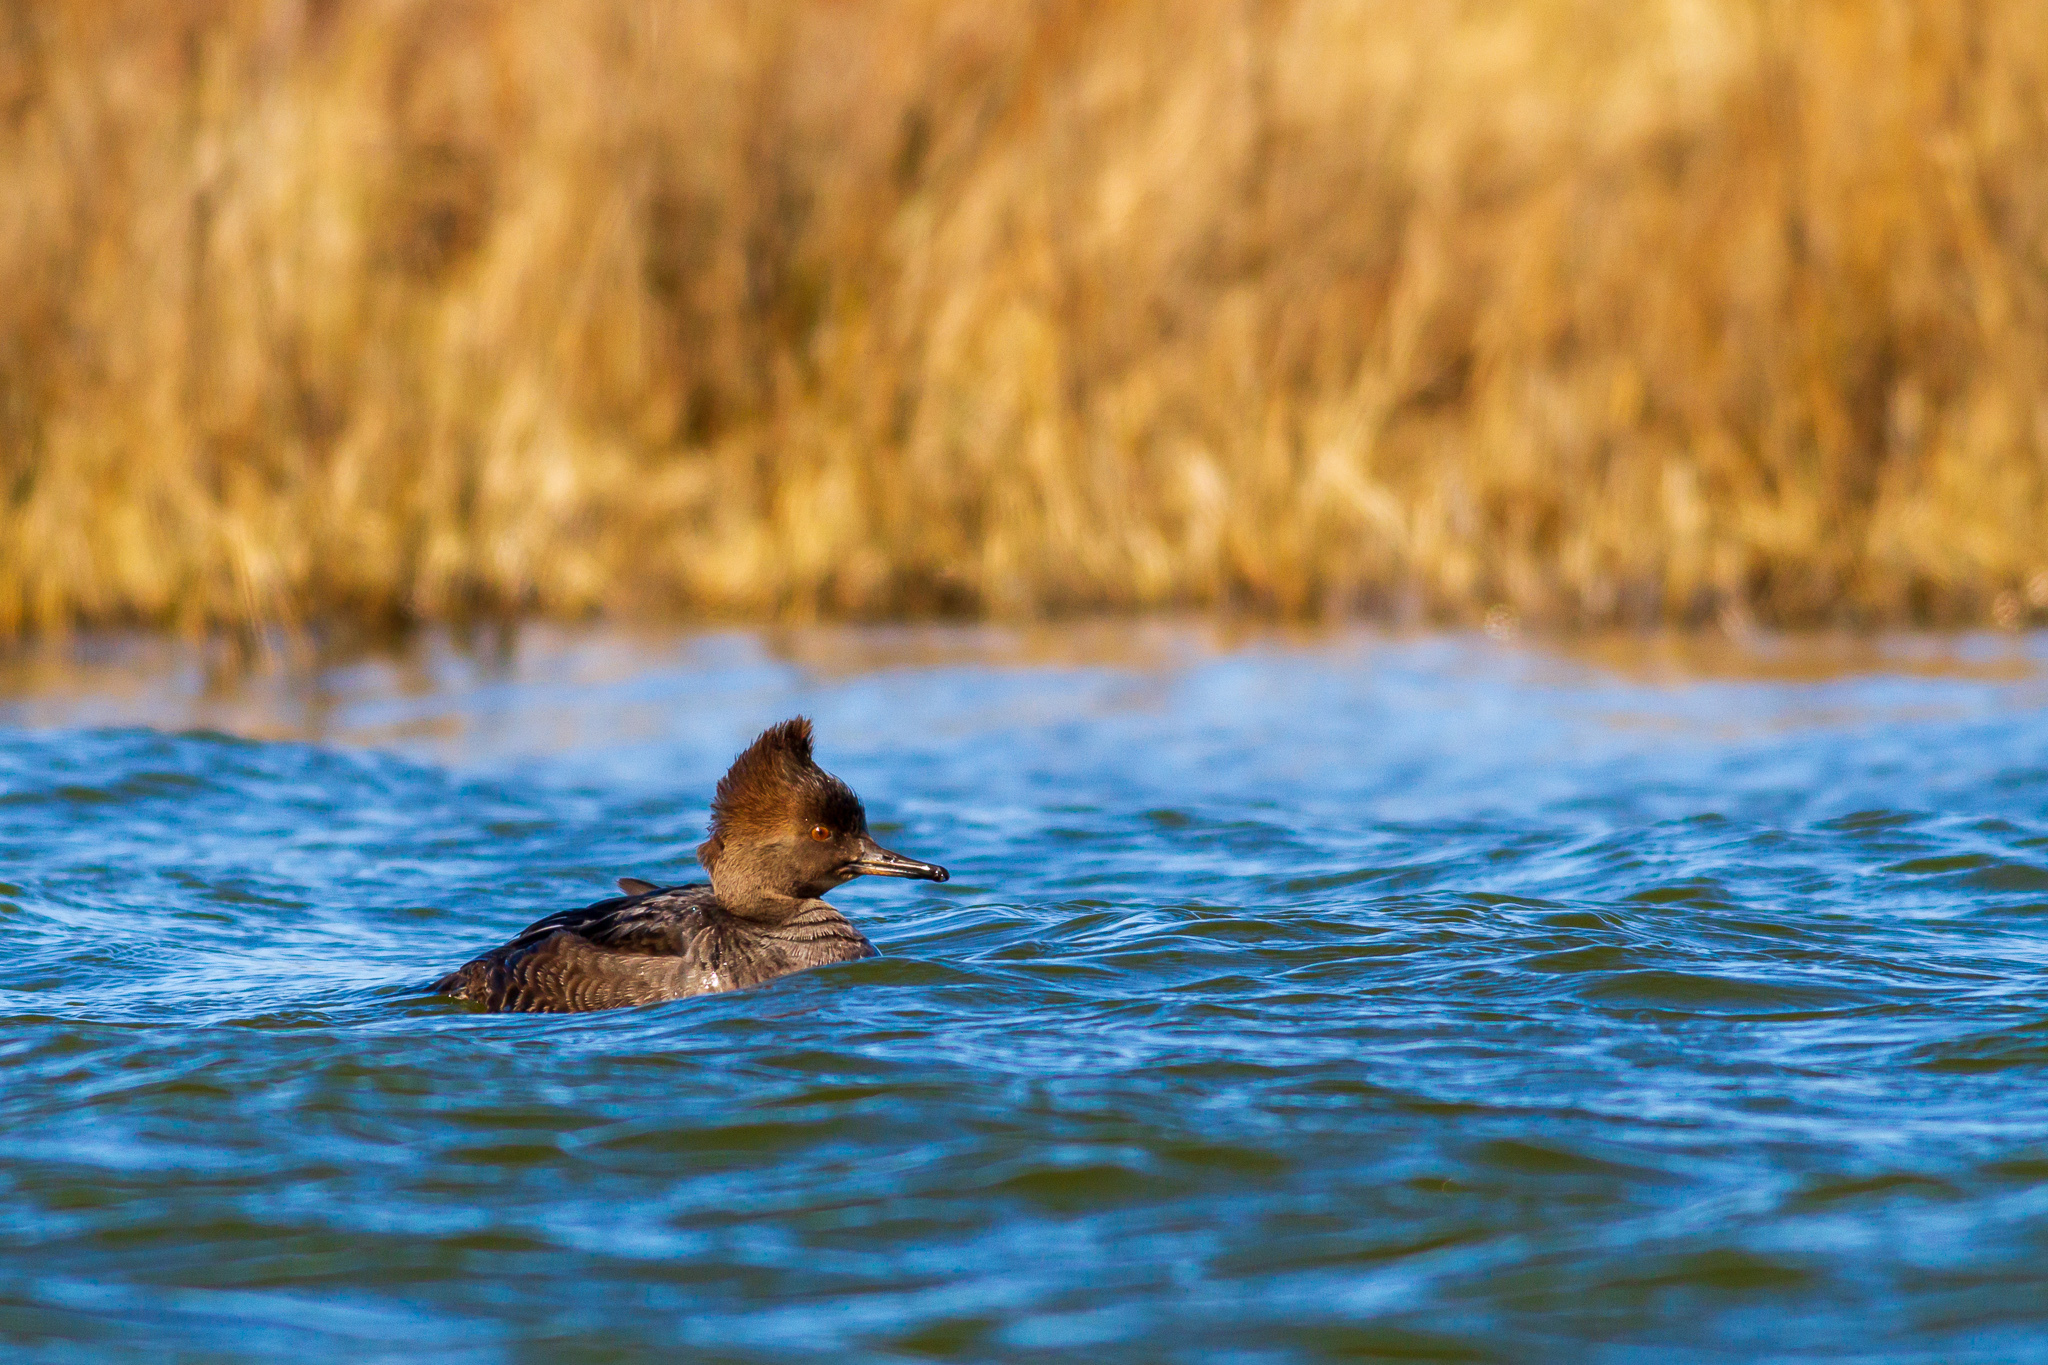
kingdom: Animalia
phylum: Chordata
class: Aves
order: Anseriformes
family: Anatidae
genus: Lophodytes
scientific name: Lophodytes cucullatus
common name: Hooded merganser
